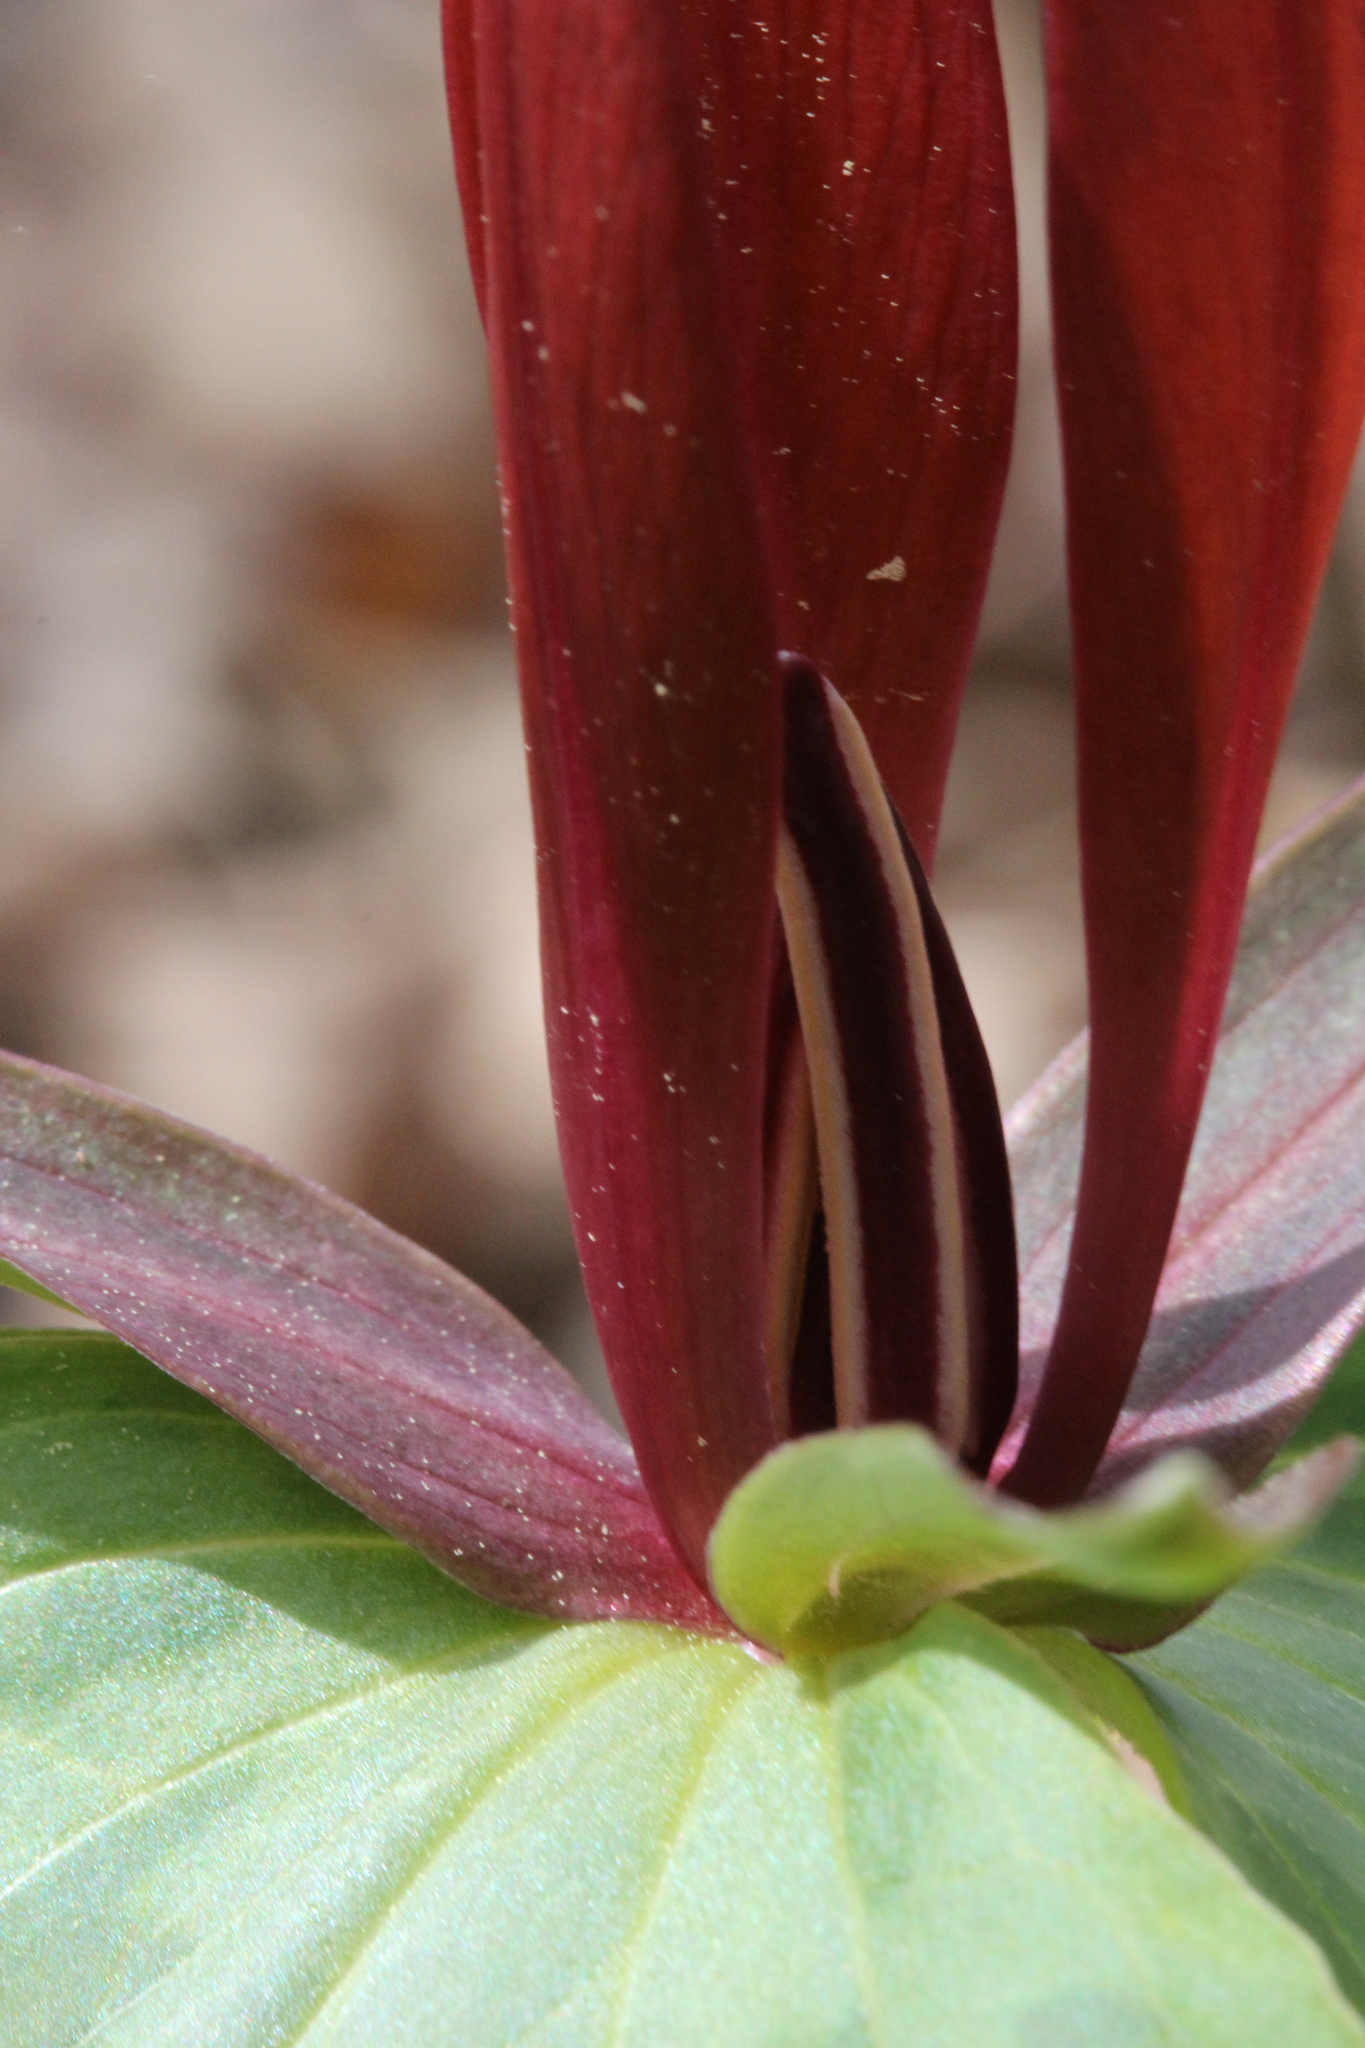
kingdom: Plantae
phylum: Tracheophyta
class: Liliopsida
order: Liliales
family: Melanthiaceae
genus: Trillium
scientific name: Trillium cuneatum
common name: Cuneate trillium
